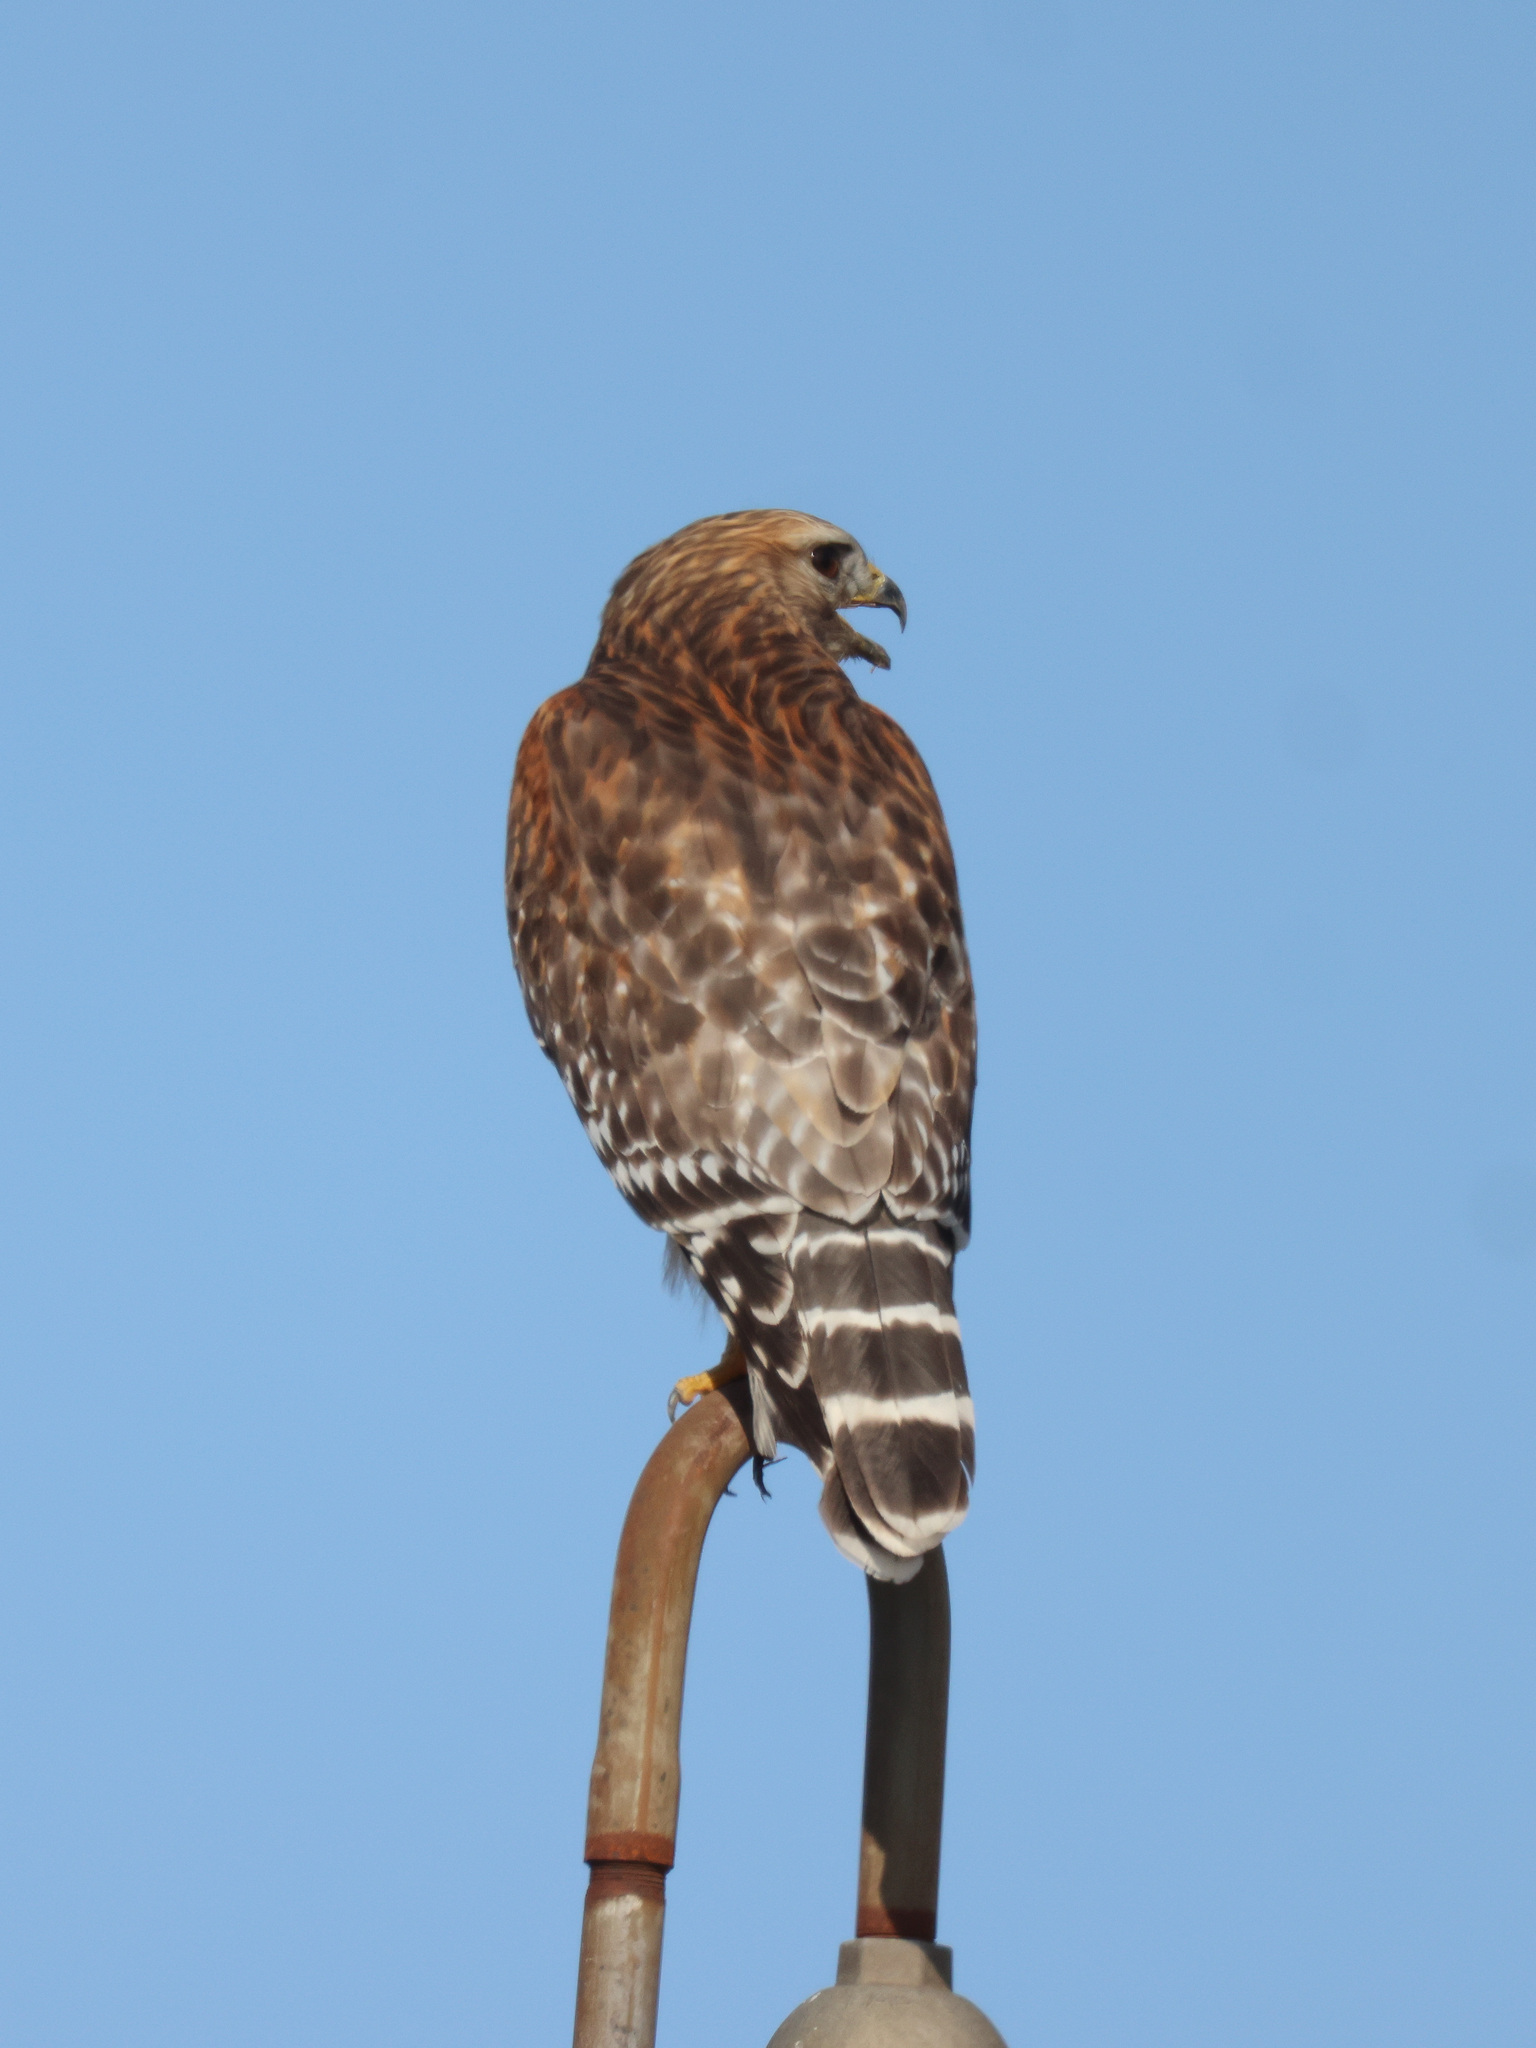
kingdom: Animalia
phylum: Chordata
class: Aves
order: Accipitriformes
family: Accipitridae
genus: Buteo
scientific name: Buteo lineatus
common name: Red-shouldered hawk
